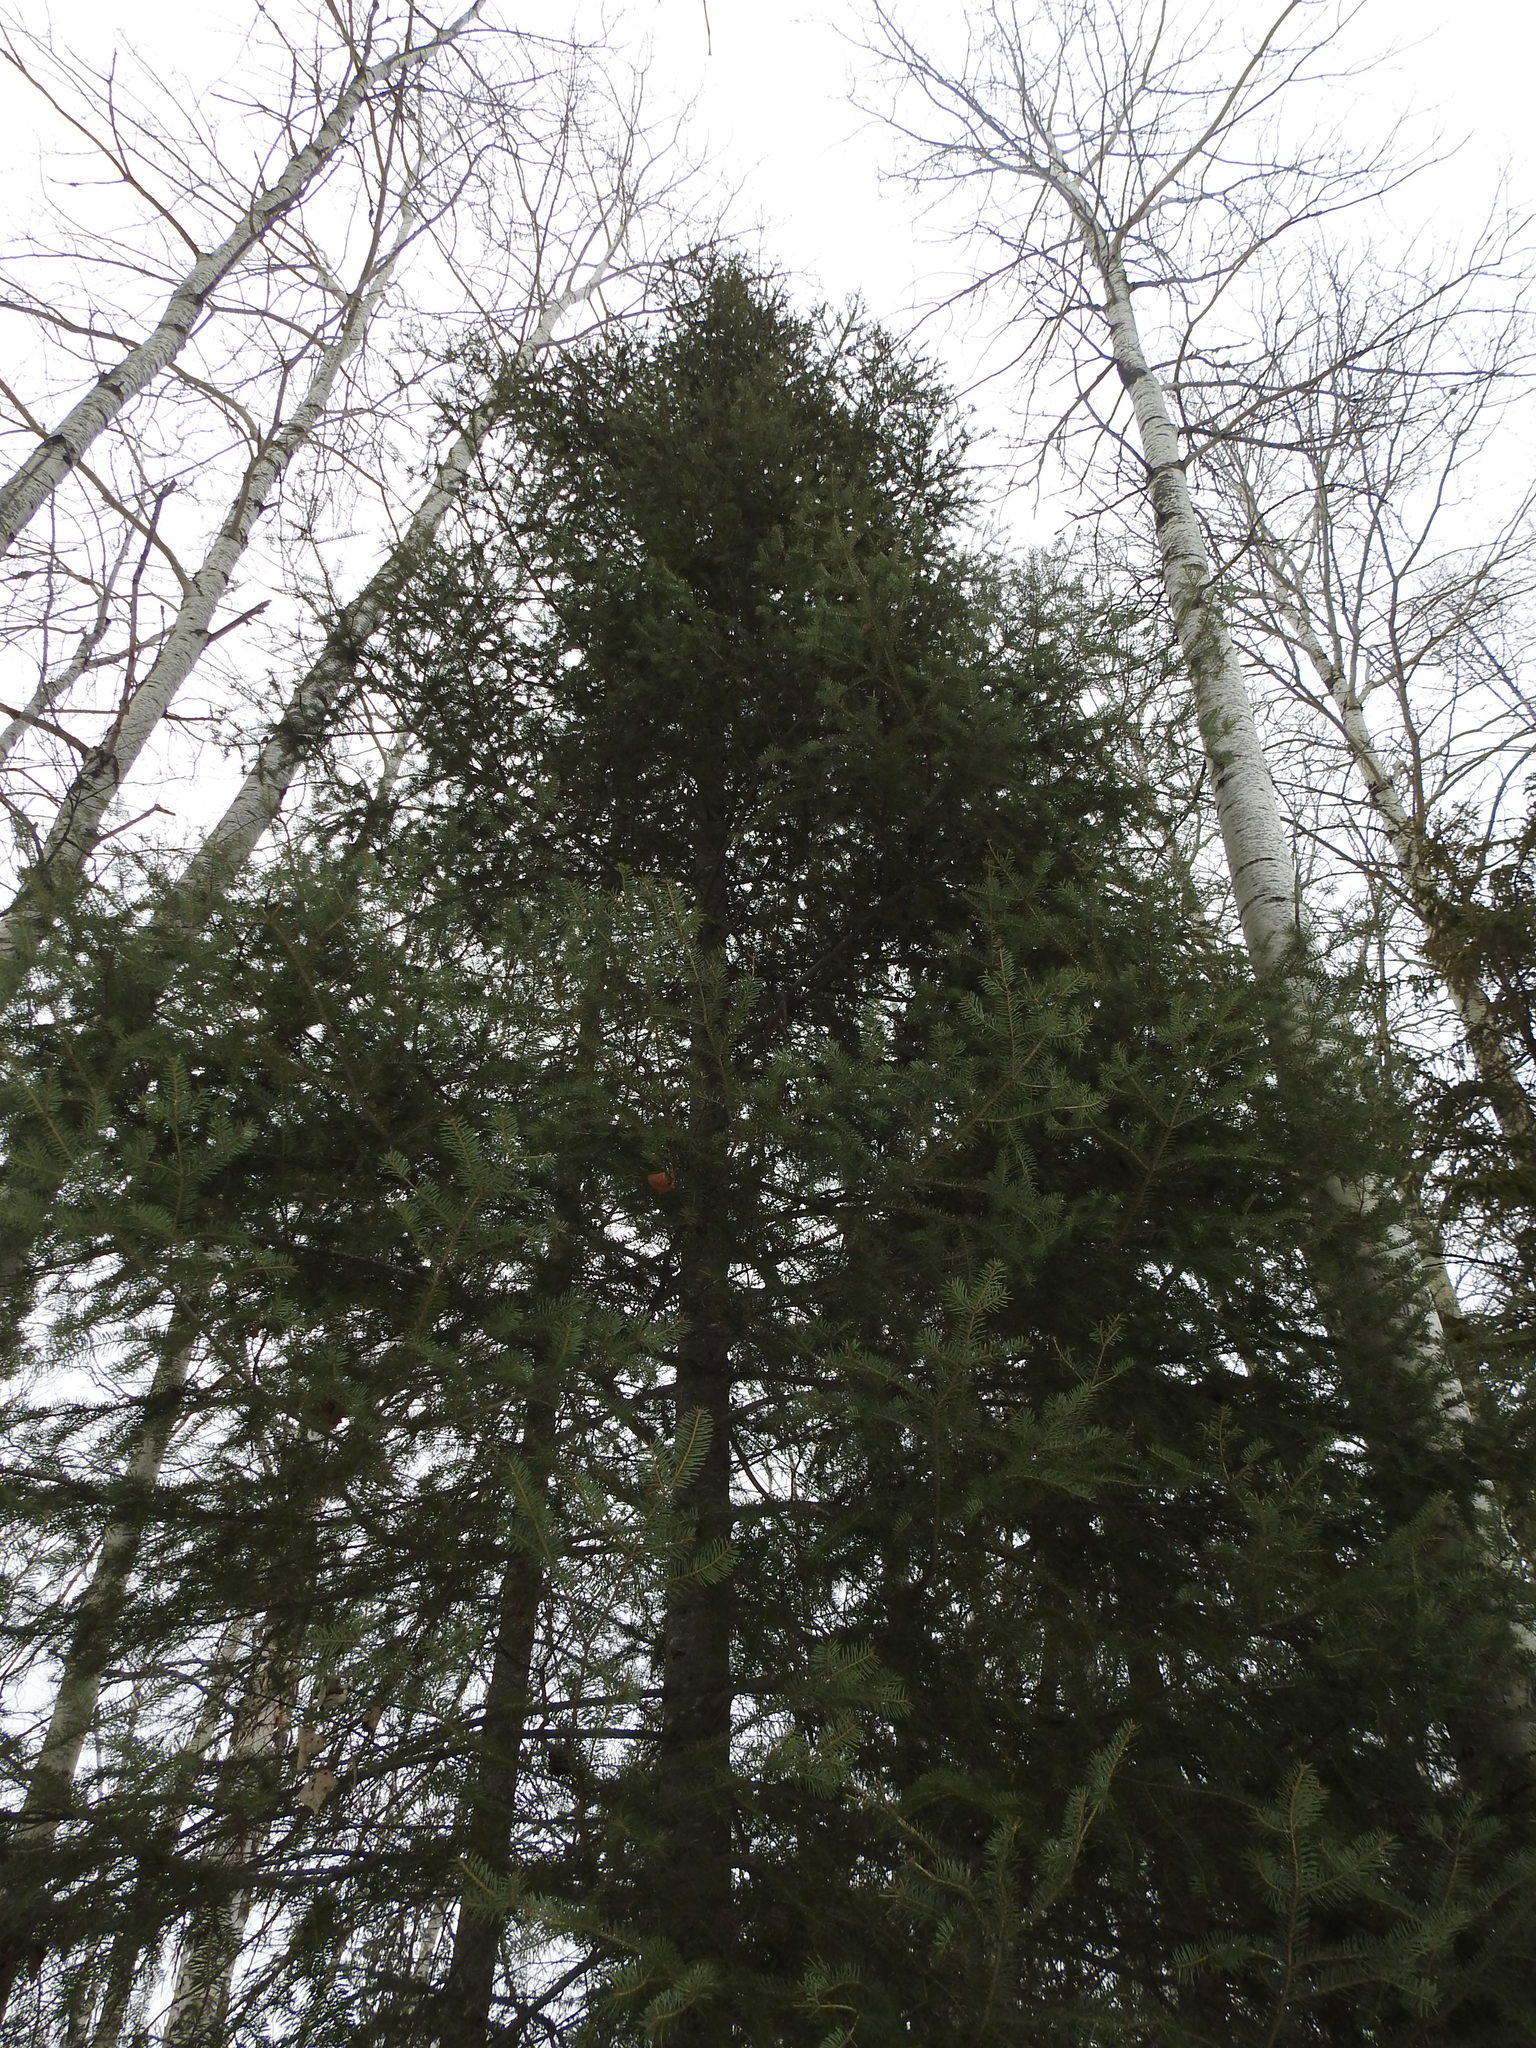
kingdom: Plantae
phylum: Tracheophyta
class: Pinopsida
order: Pinales
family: Pinaceae
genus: Abies
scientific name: Abies balsamea
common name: Balsam fir
